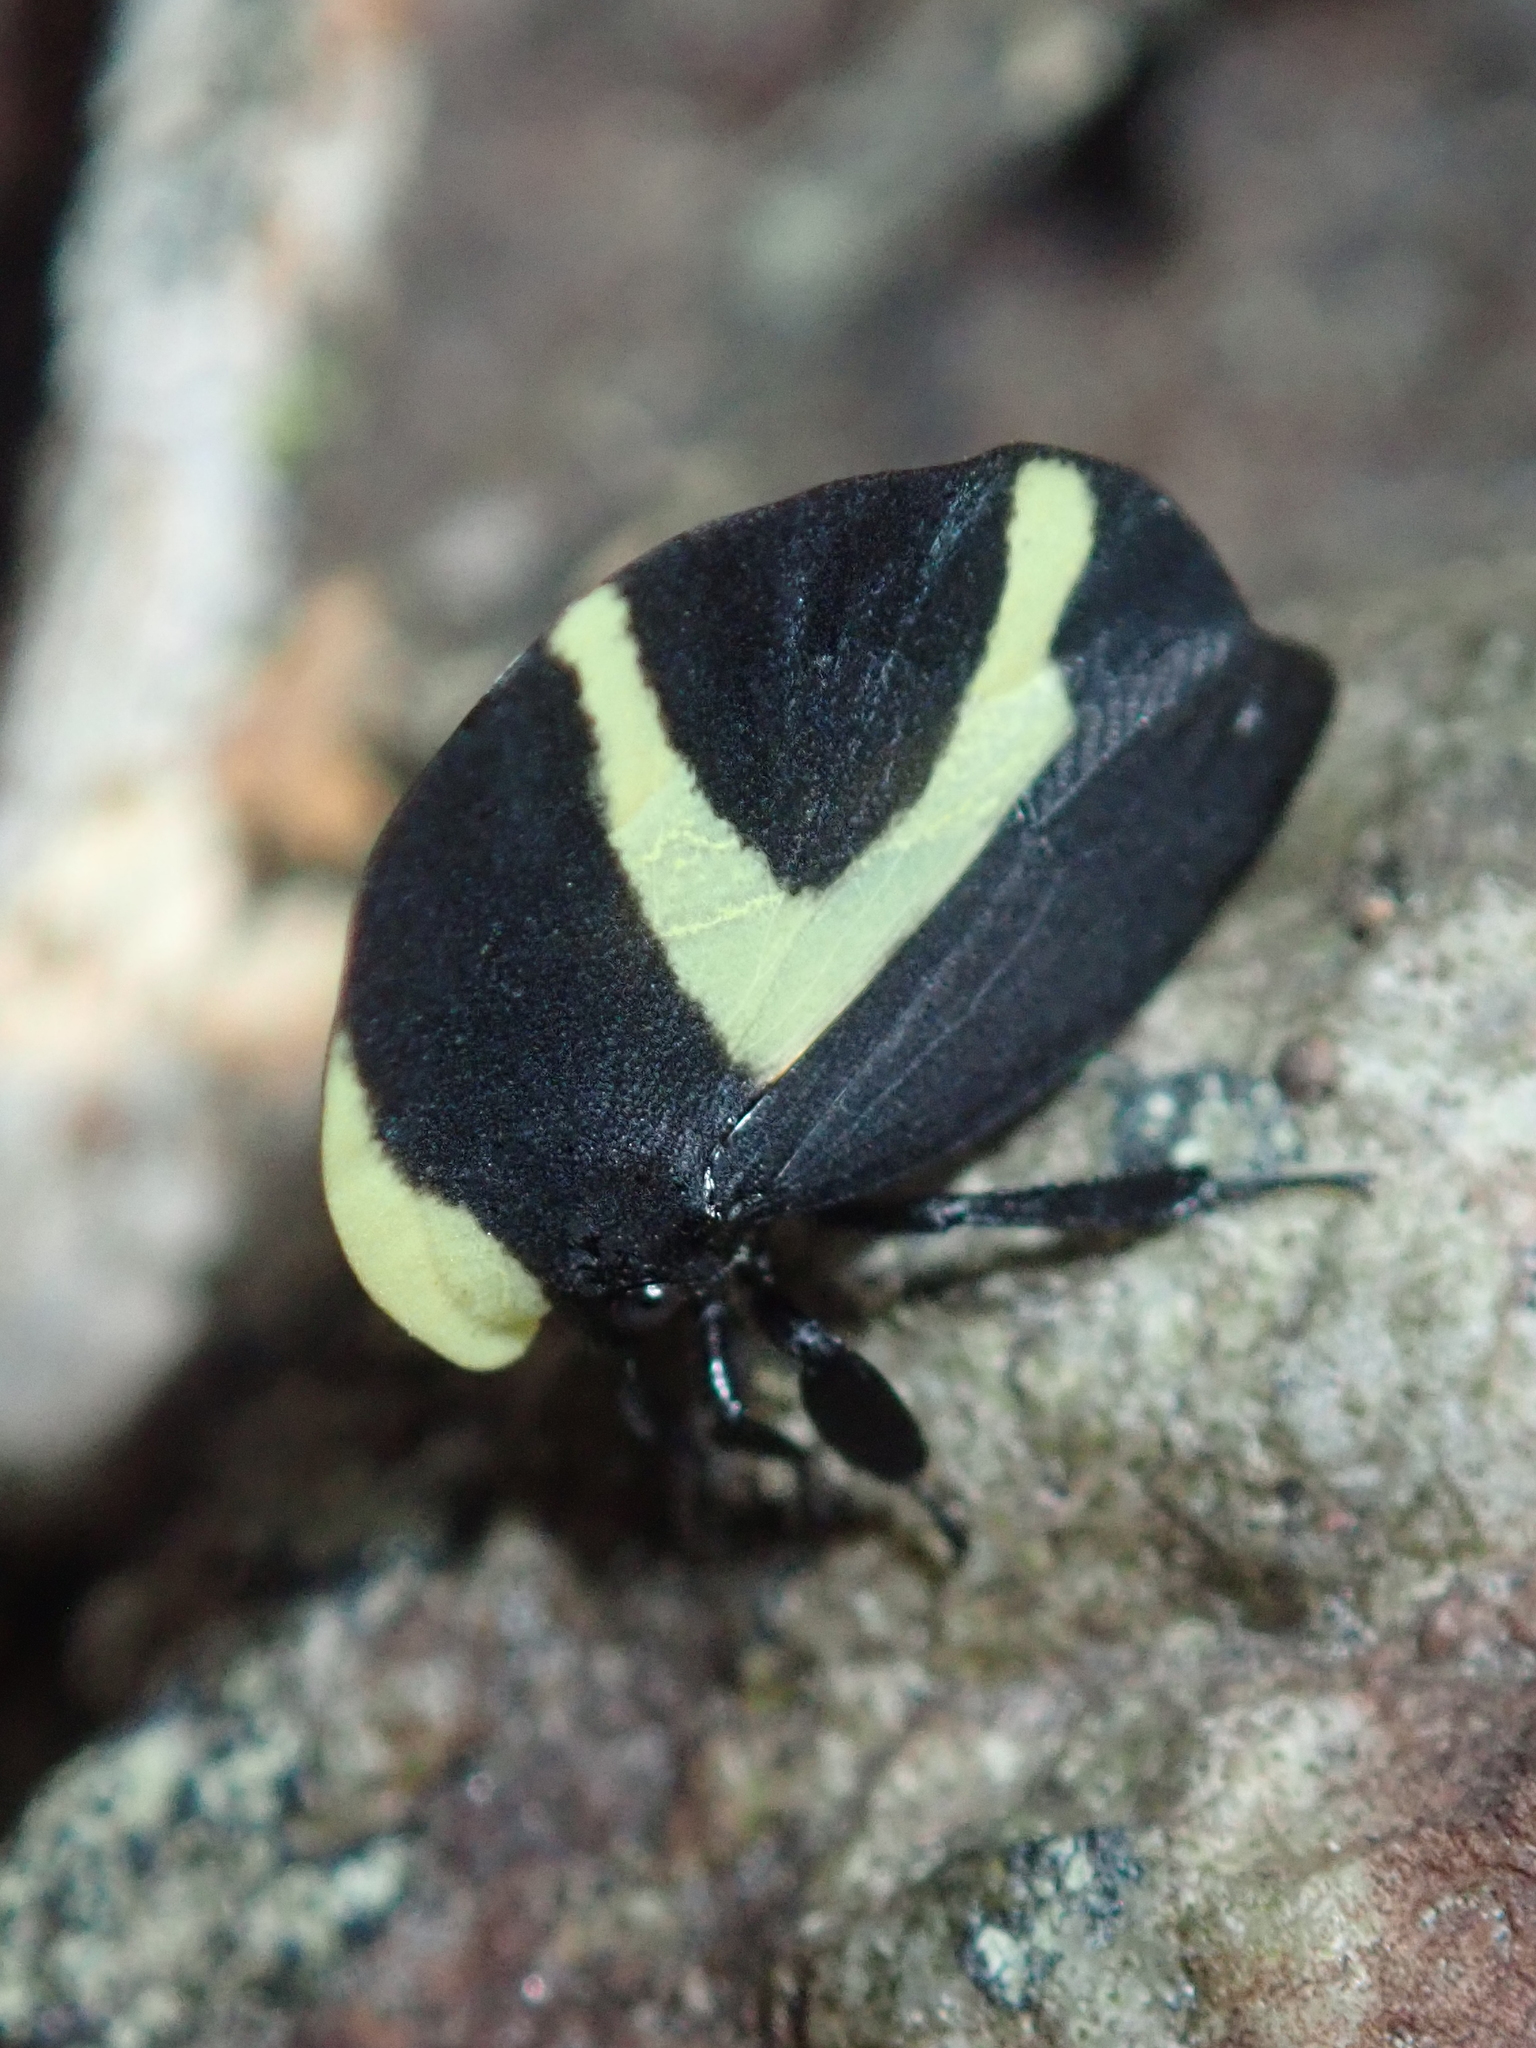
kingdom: Animalia
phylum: Arthropoda
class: Insecta
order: Hemiptera
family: Membracidae
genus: Membracis
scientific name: Membracis celsa
